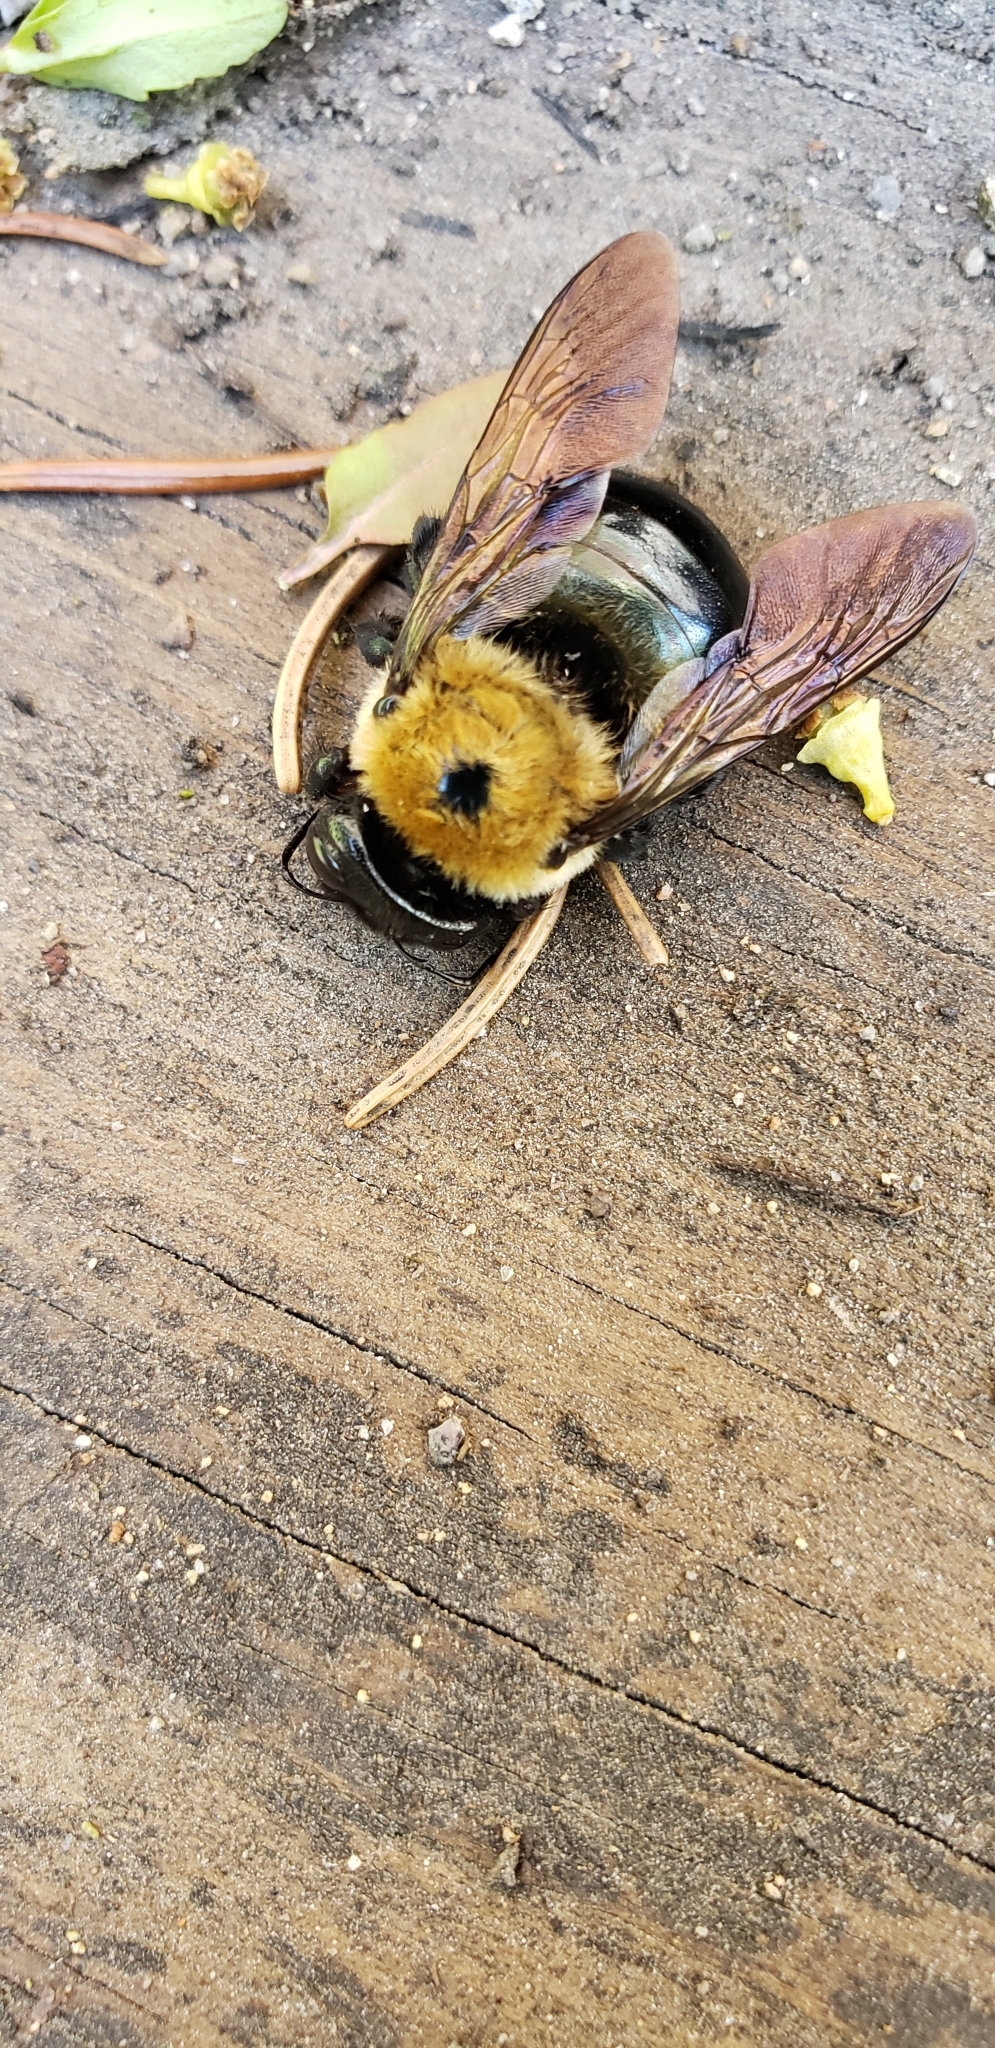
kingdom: Animalia
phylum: Arthropoda
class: Insecta
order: Hymenoptera
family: Apidae
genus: Xylocopa
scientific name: Xylocopa virginica
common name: Carpenter bee
